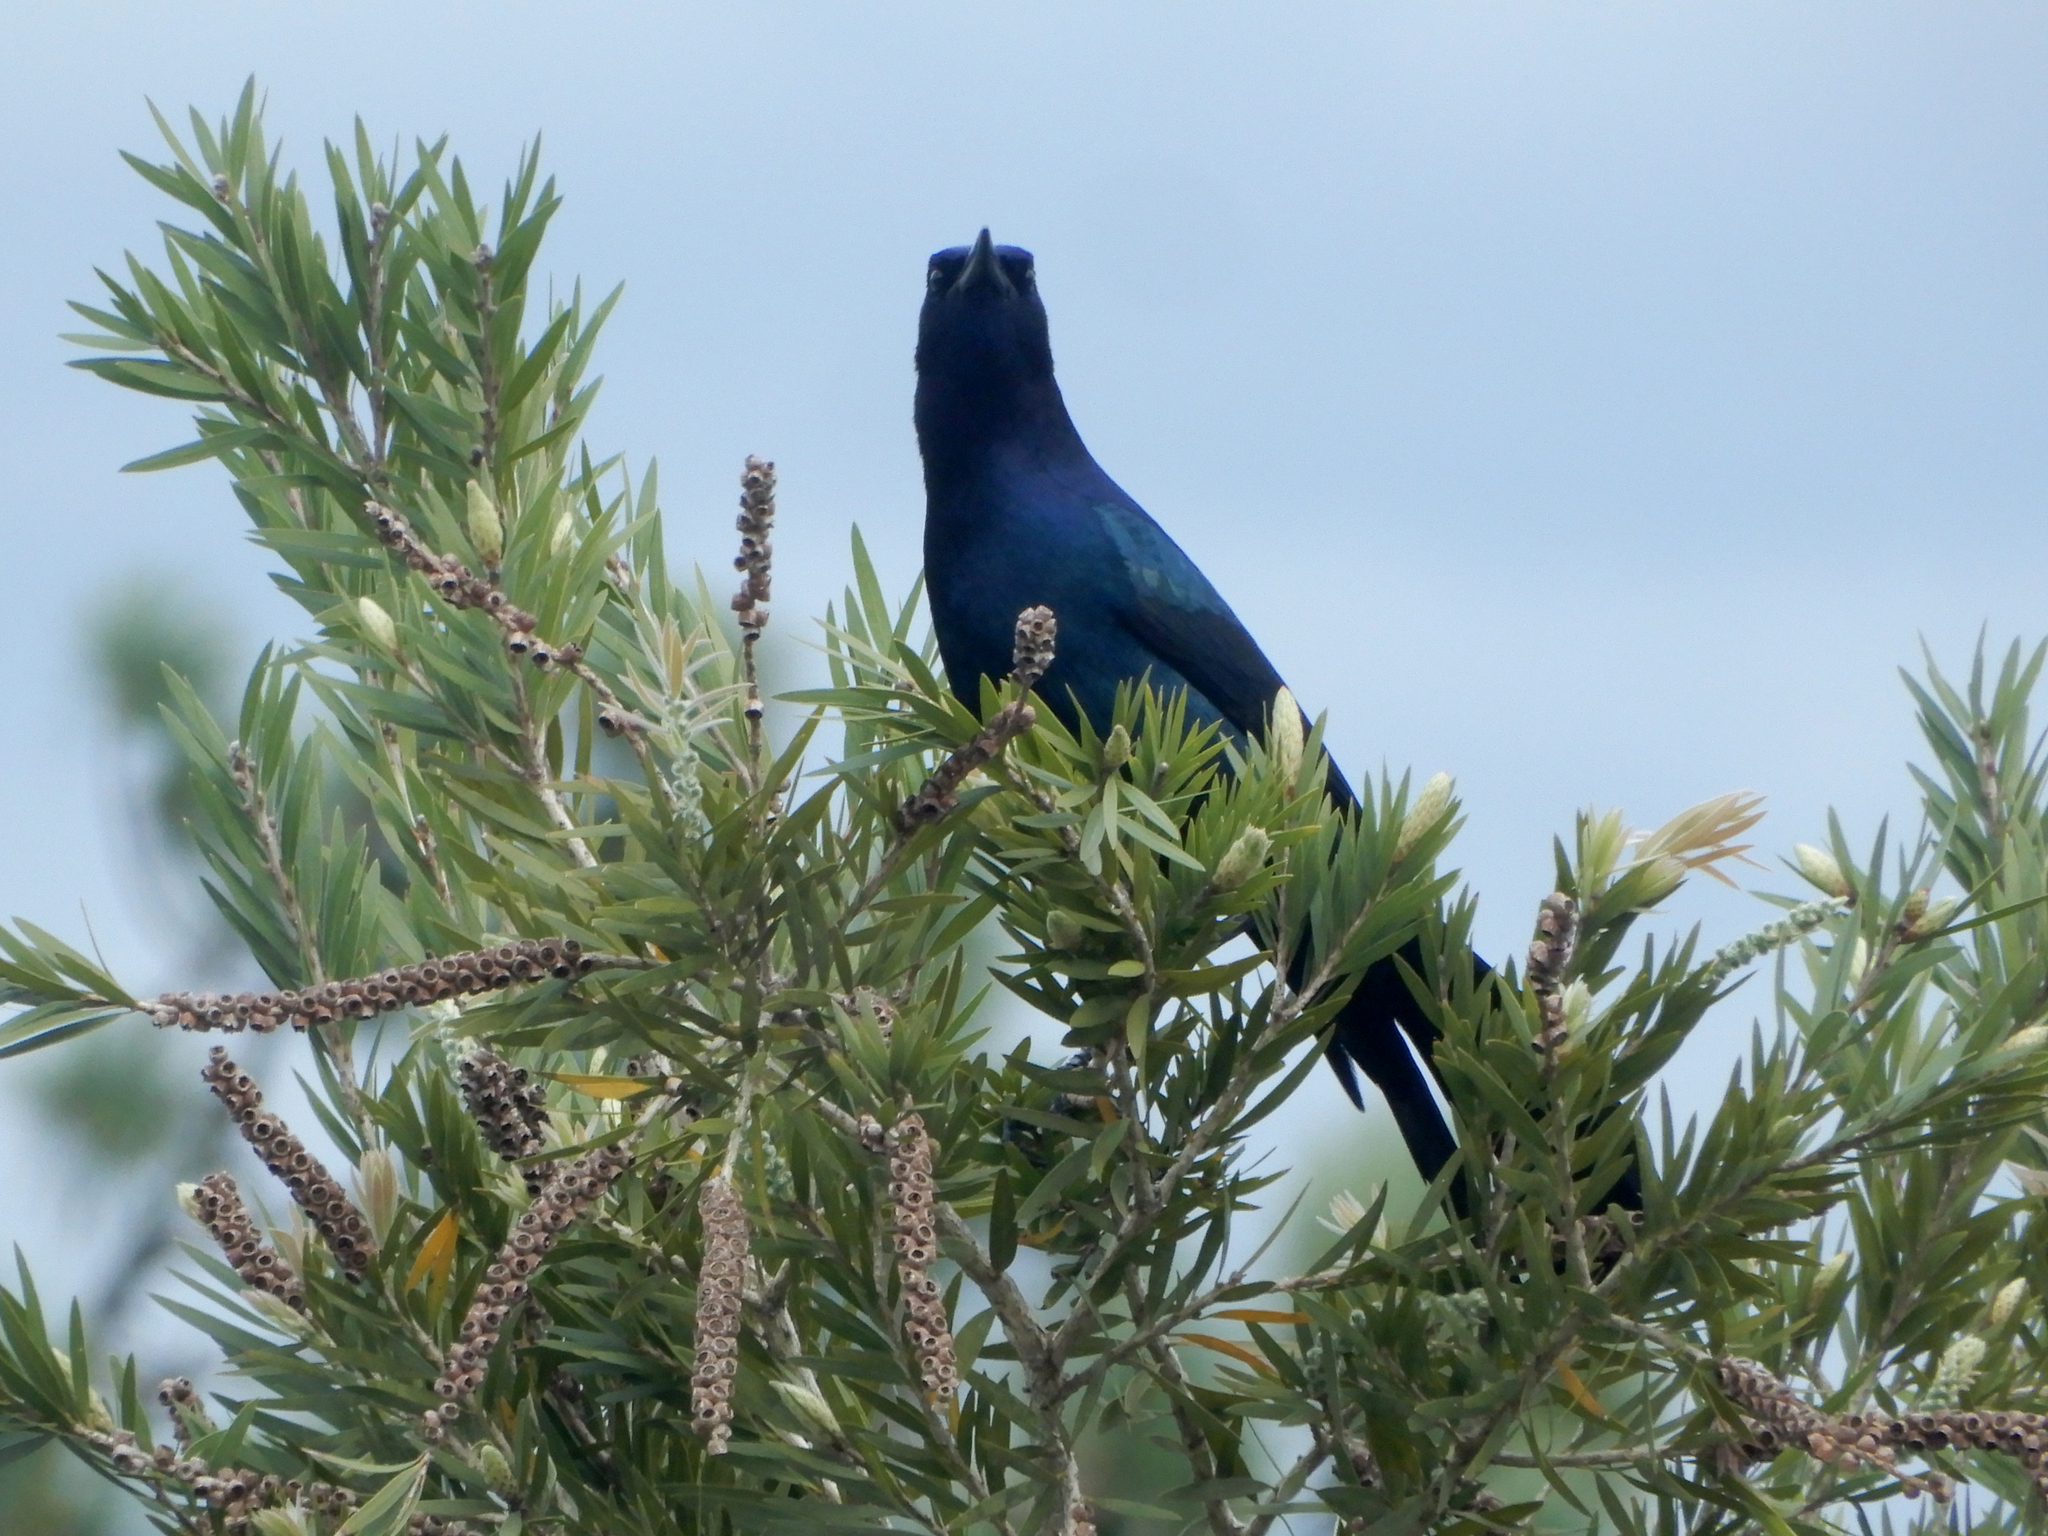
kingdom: Animalia
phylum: Chordata
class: Aves
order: Passeriformes
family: Icteridae
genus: Quiscalus
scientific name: Quiscalus major
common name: Boat-tailed grackle
